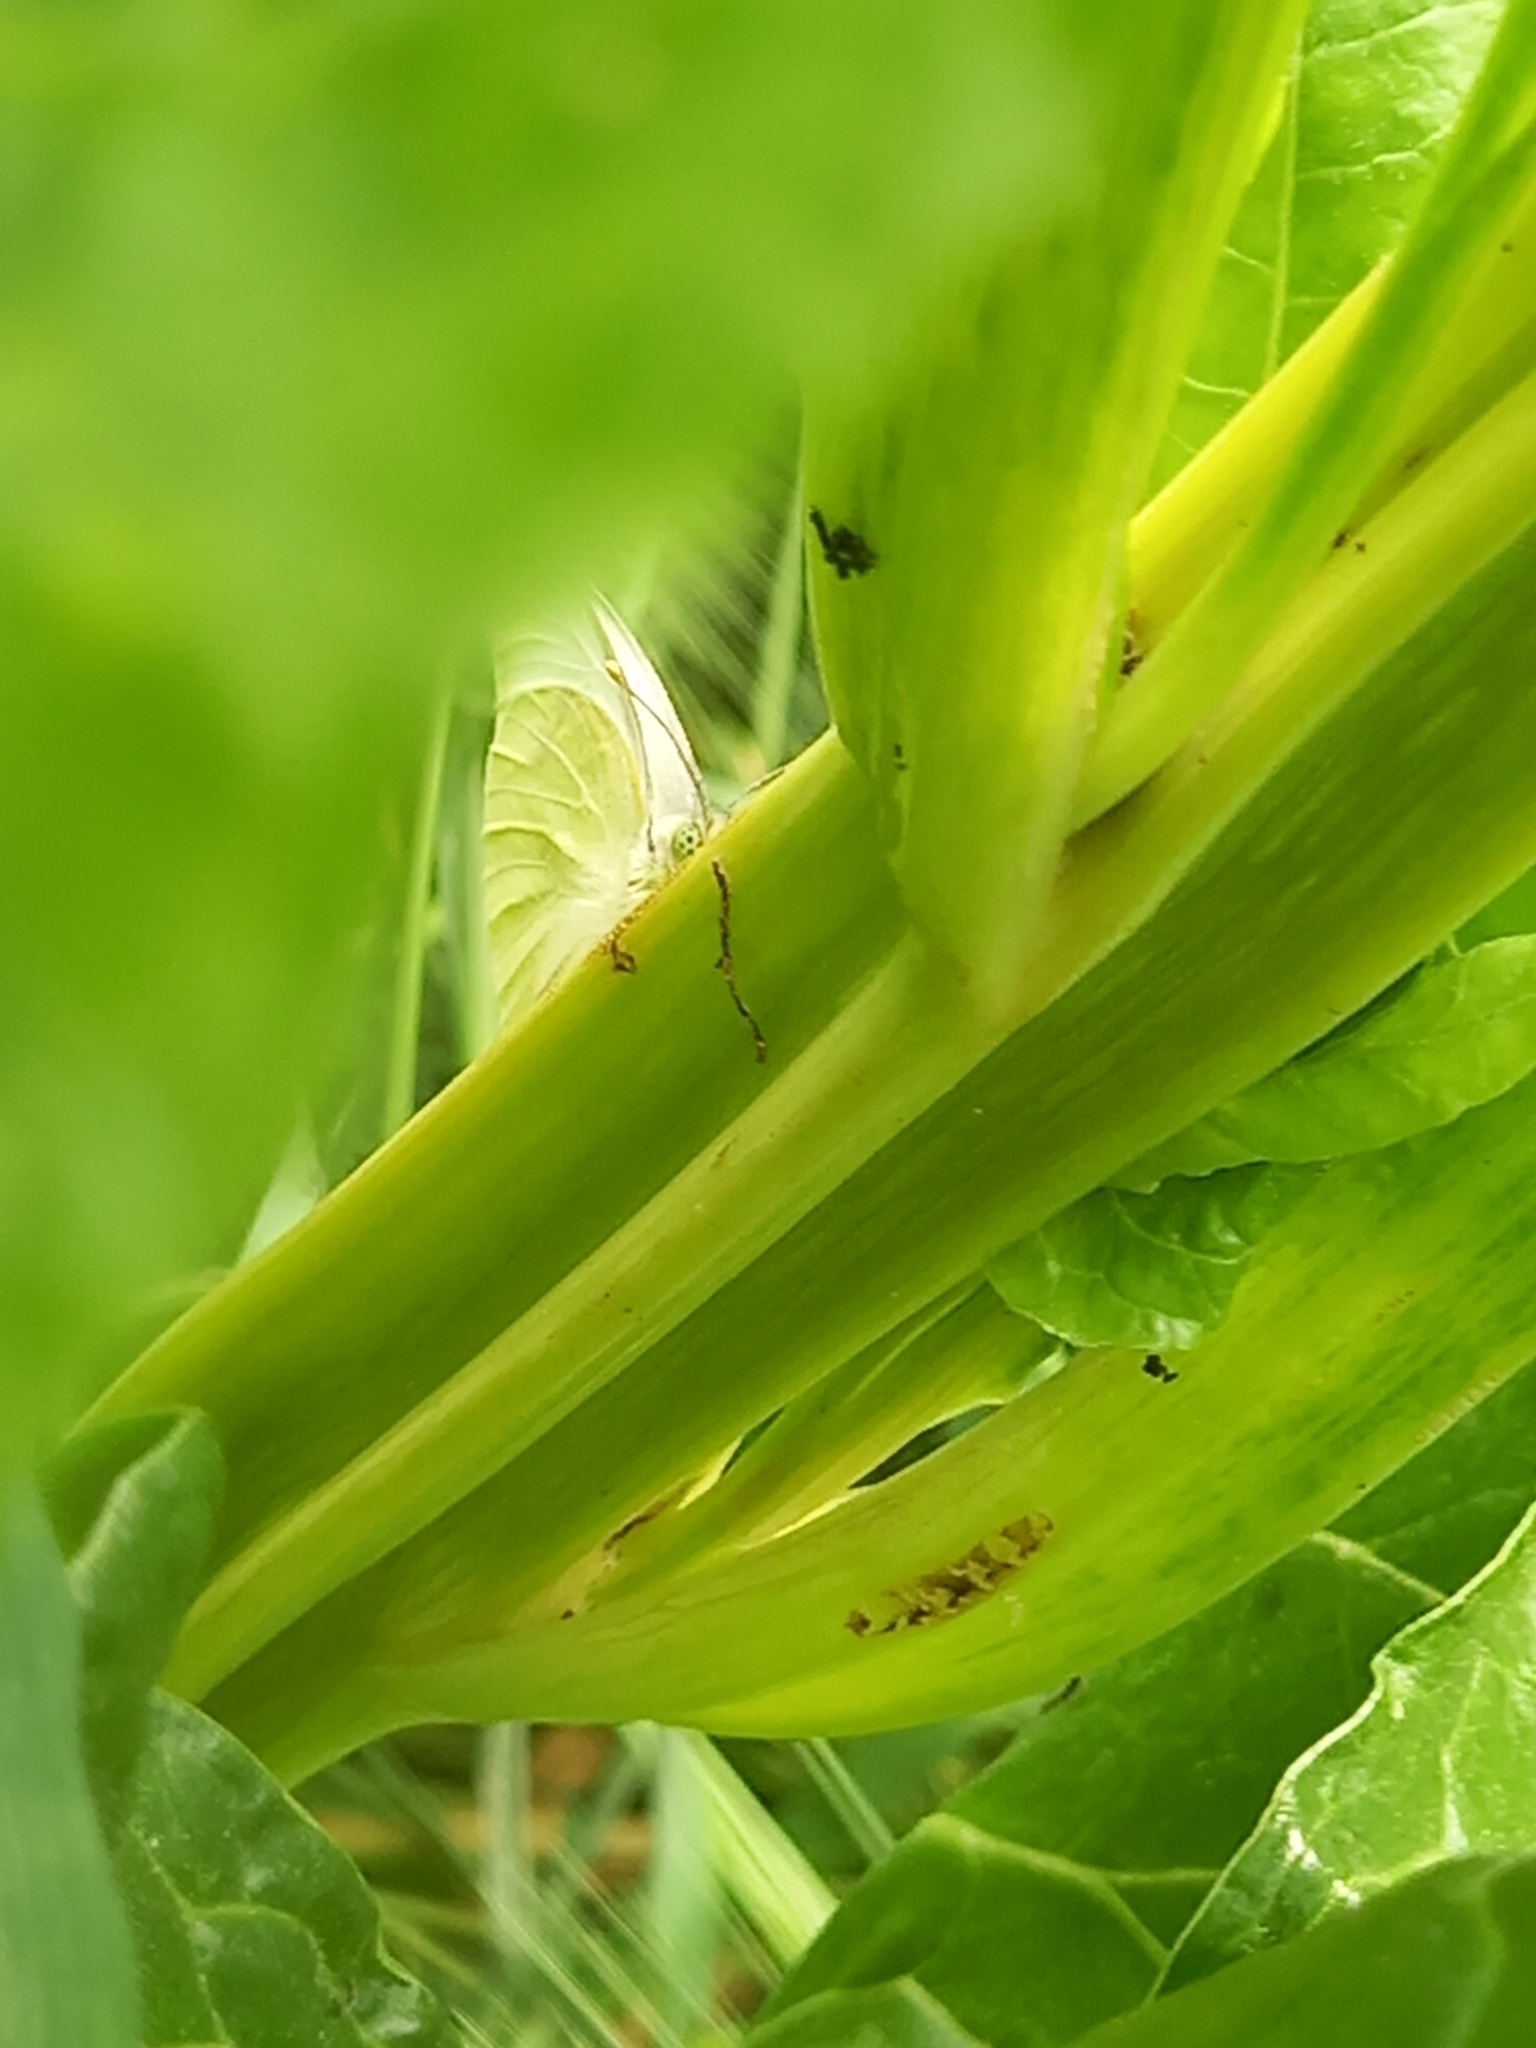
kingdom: Animalia
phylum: Arthropoda
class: Insecta
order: Lepidoptera
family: Pieridae
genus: Pieris
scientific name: Pieris rapae
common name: Small white
